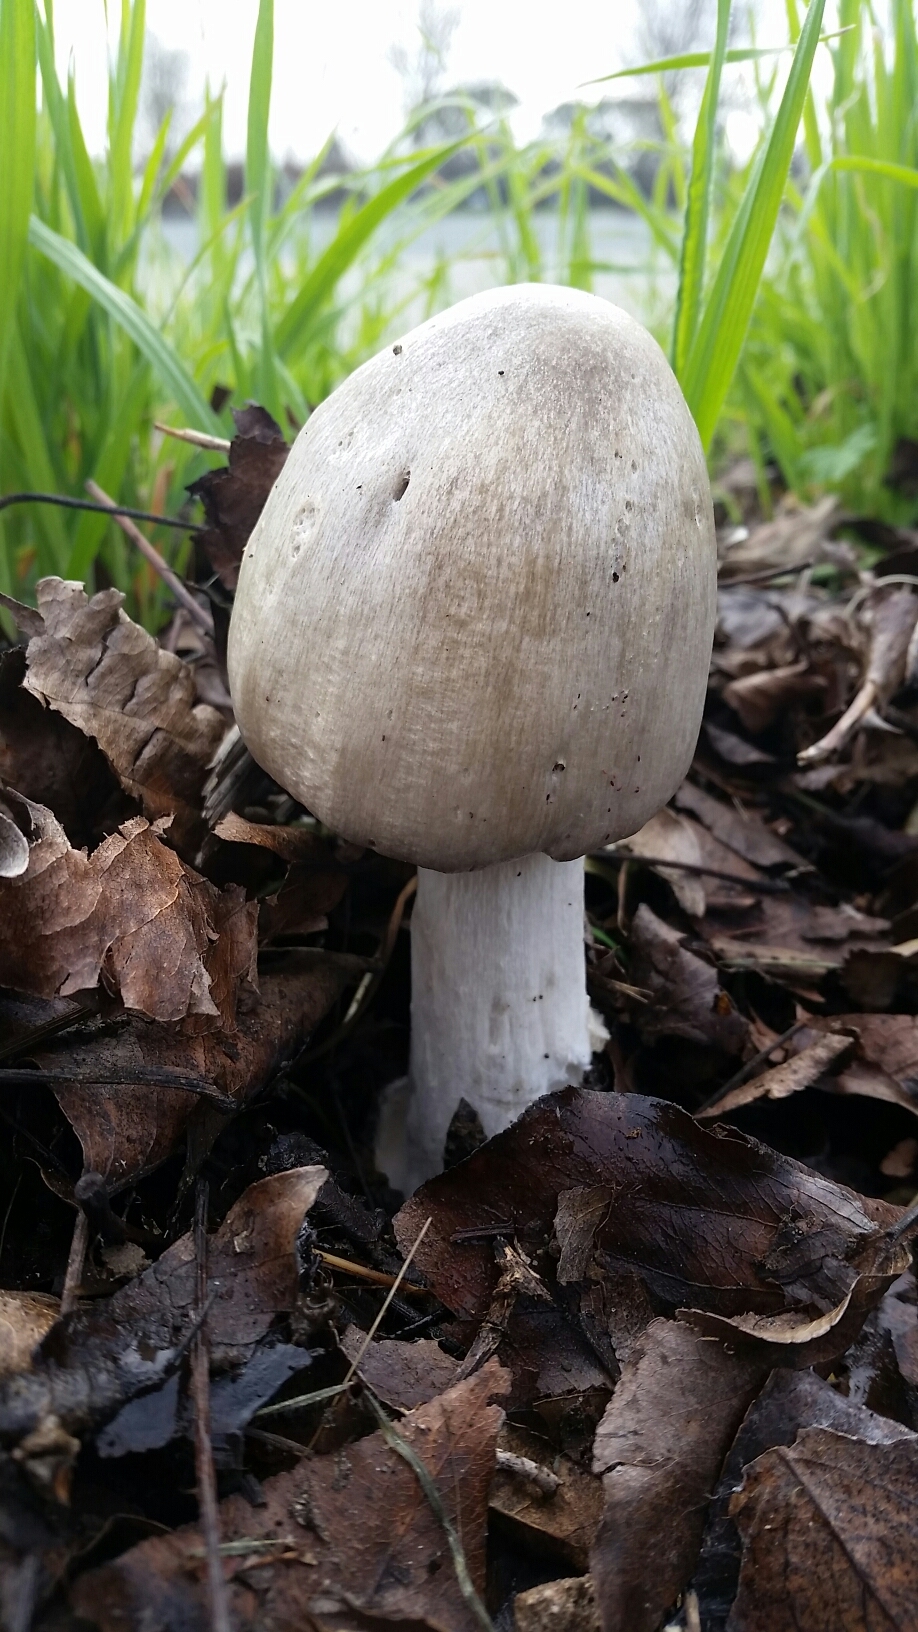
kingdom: Fungi
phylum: Basidiomycota
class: Agaricomycetes
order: Agaricales
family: Pluteaceae
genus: Volvopluteus
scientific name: Volvopluteus gloiocephalus
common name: Stubble rosegill
